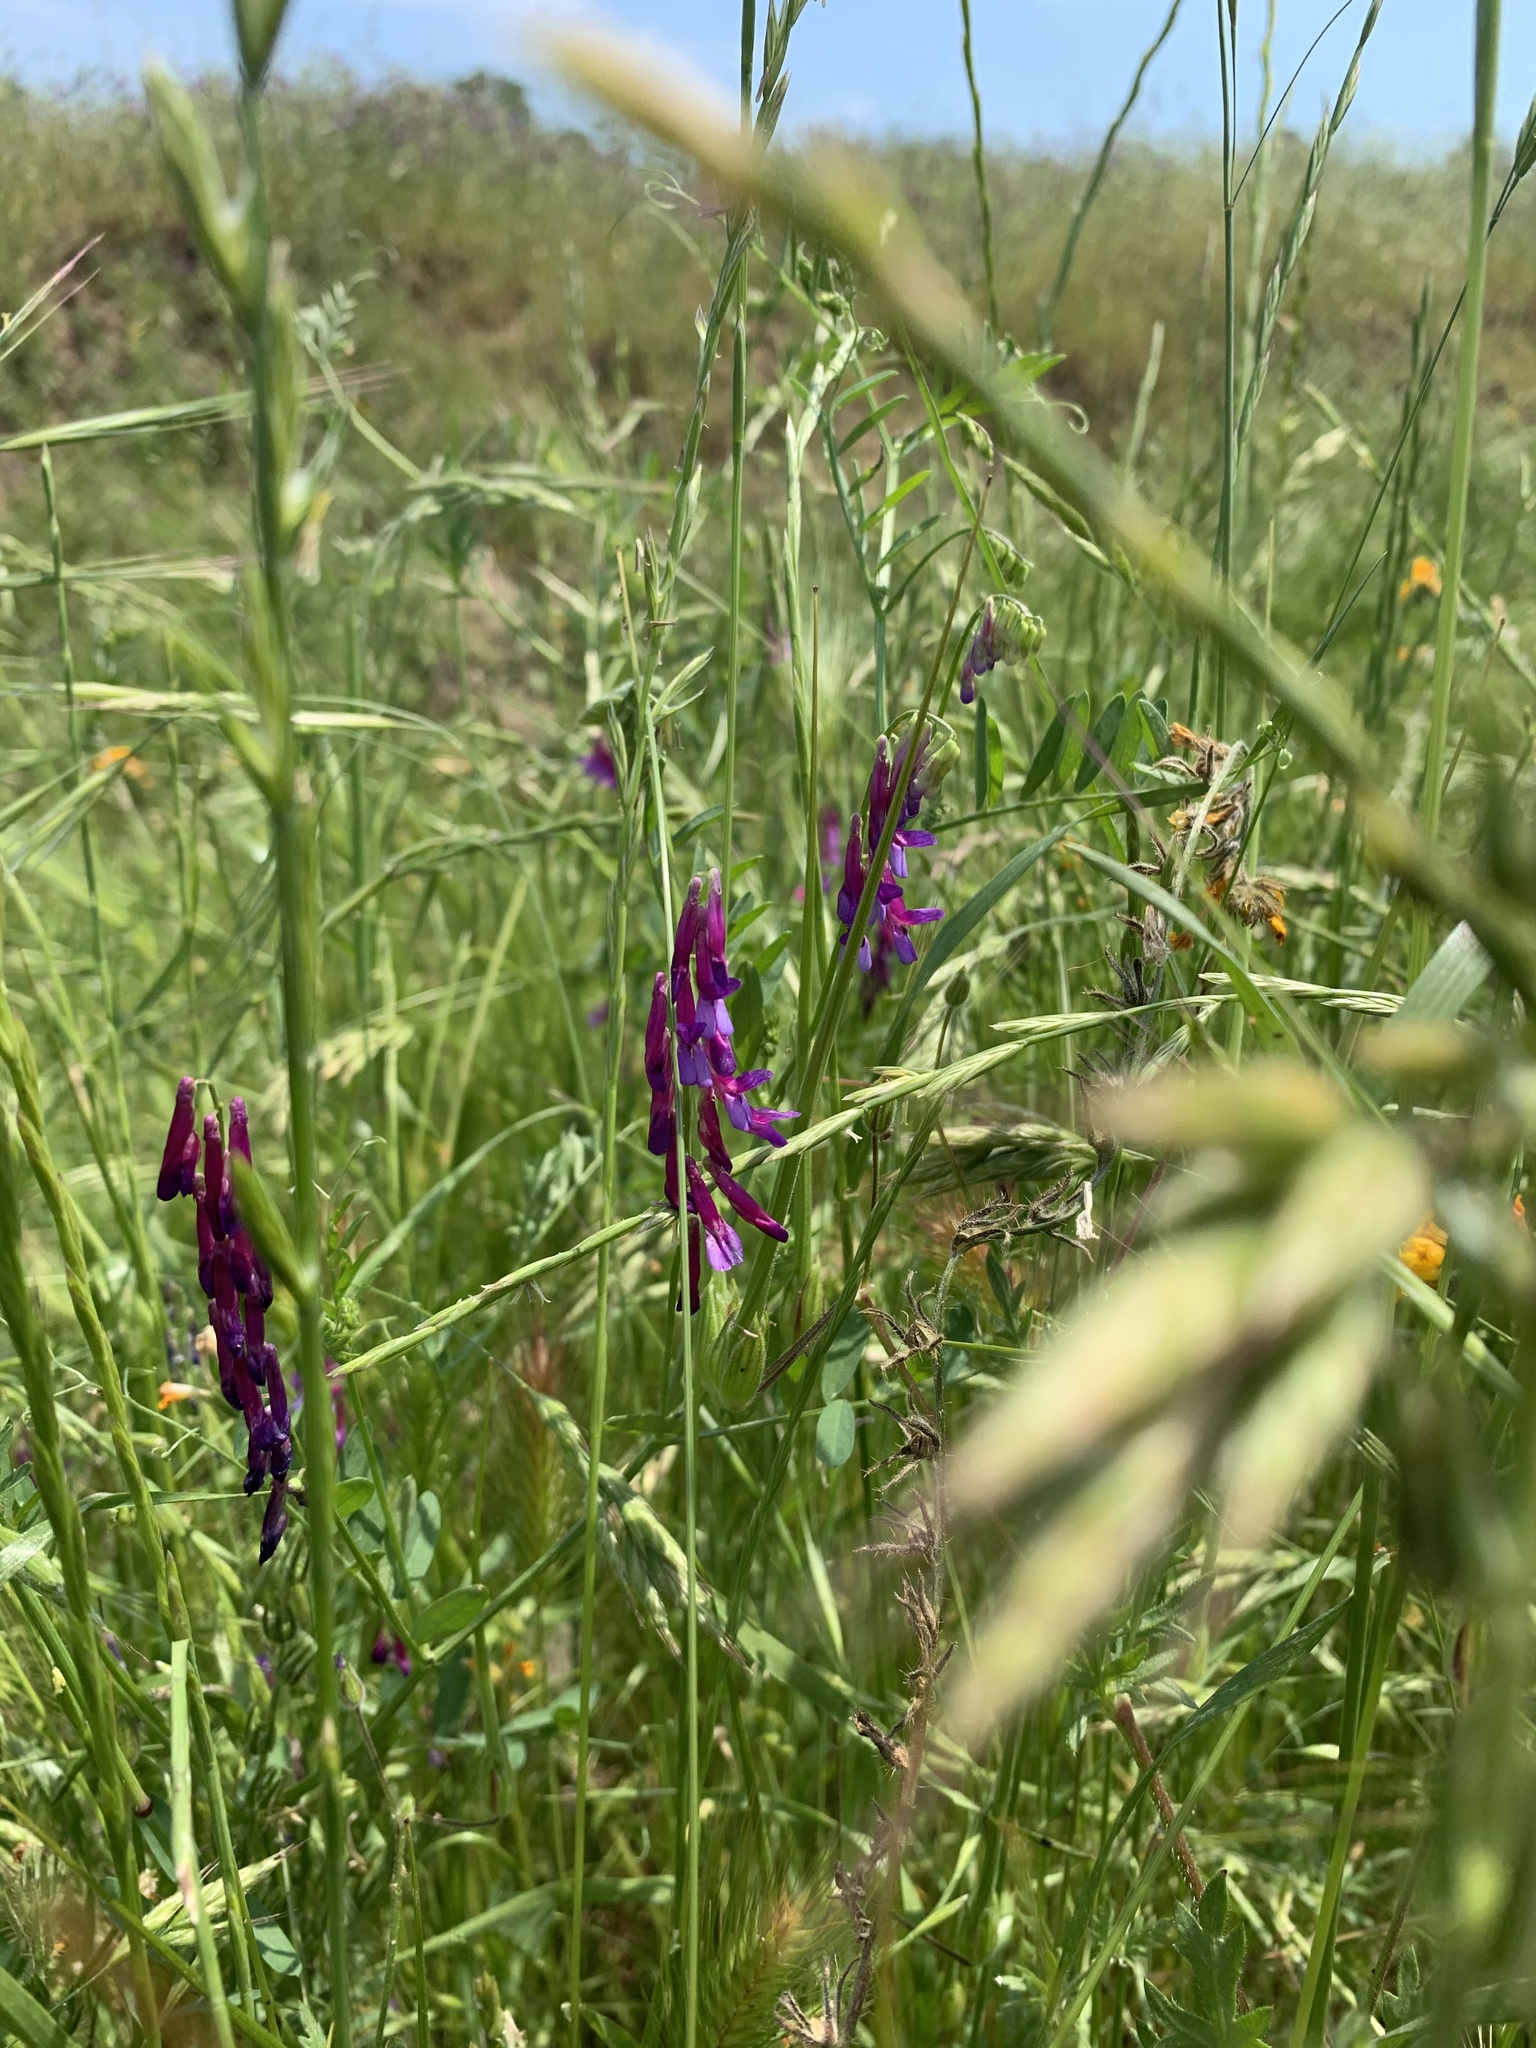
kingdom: Plantae
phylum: Tracheophyta
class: Magnoliopsida
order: Fabales
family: Fabaceae
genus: Vicia
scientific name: Vicia villosa
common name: Fodder vetch
